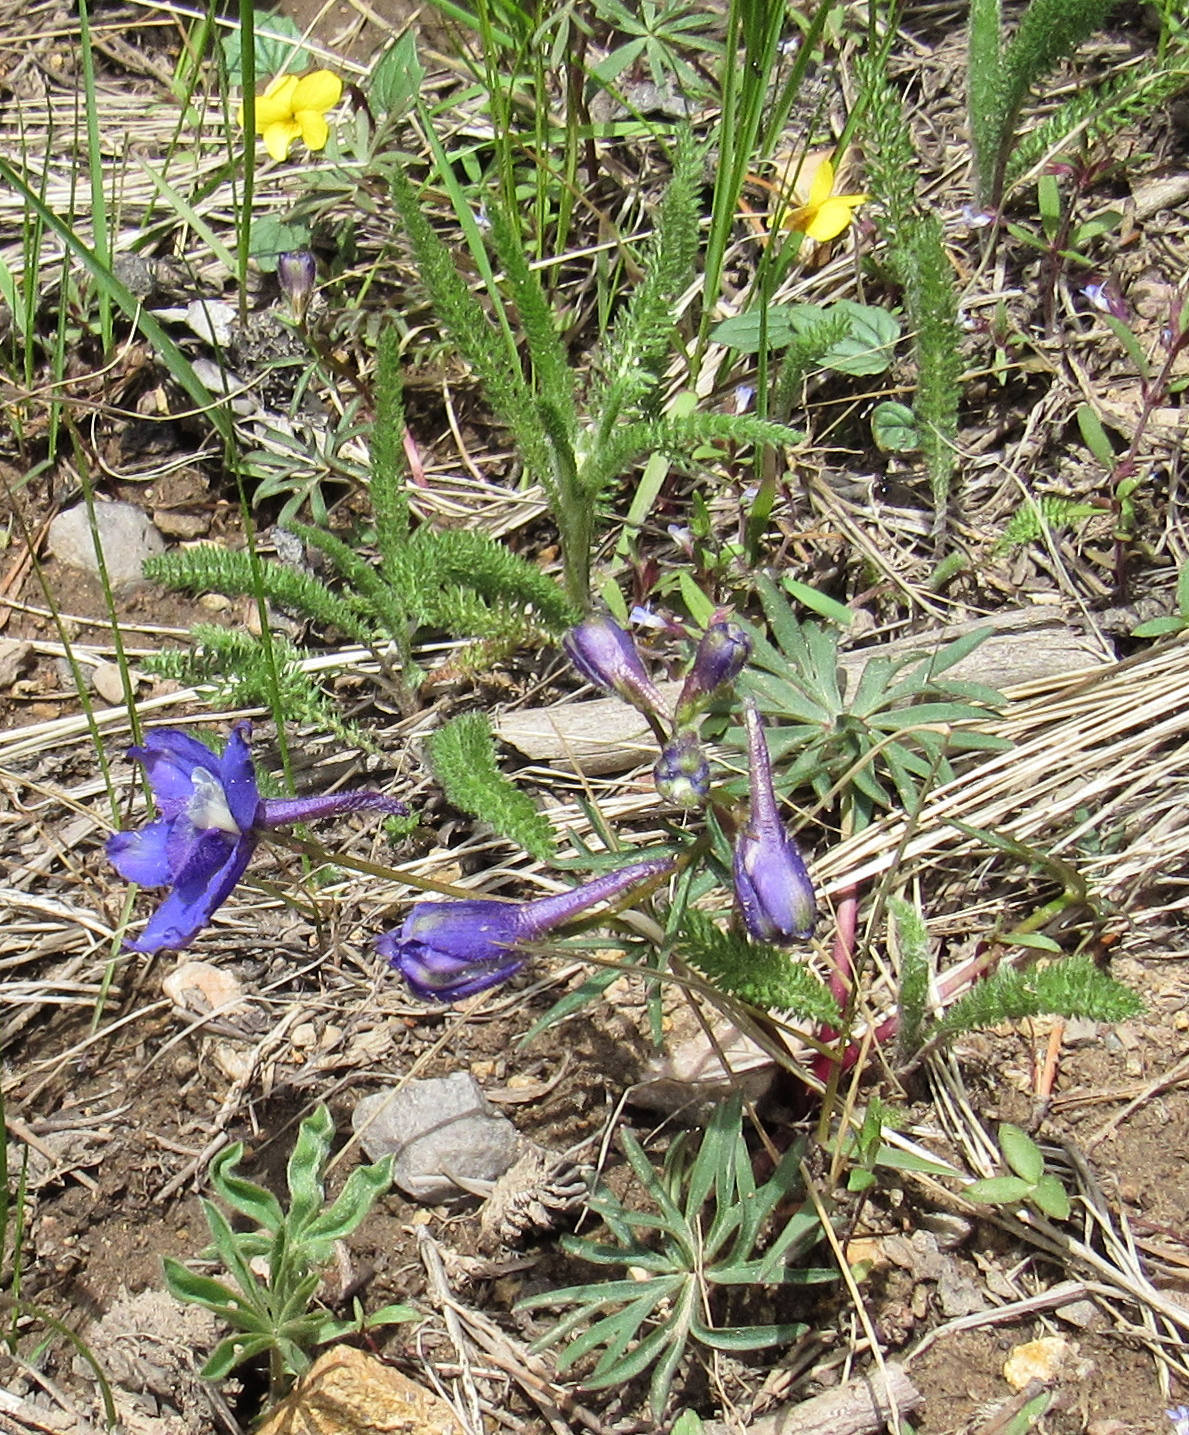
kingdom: Plantae
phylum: Tracheophyta
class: Magnoliopsida
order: Ranunculales
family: Ranunculaceae
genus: Delphinium
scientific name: Delphinium nuttallianum
